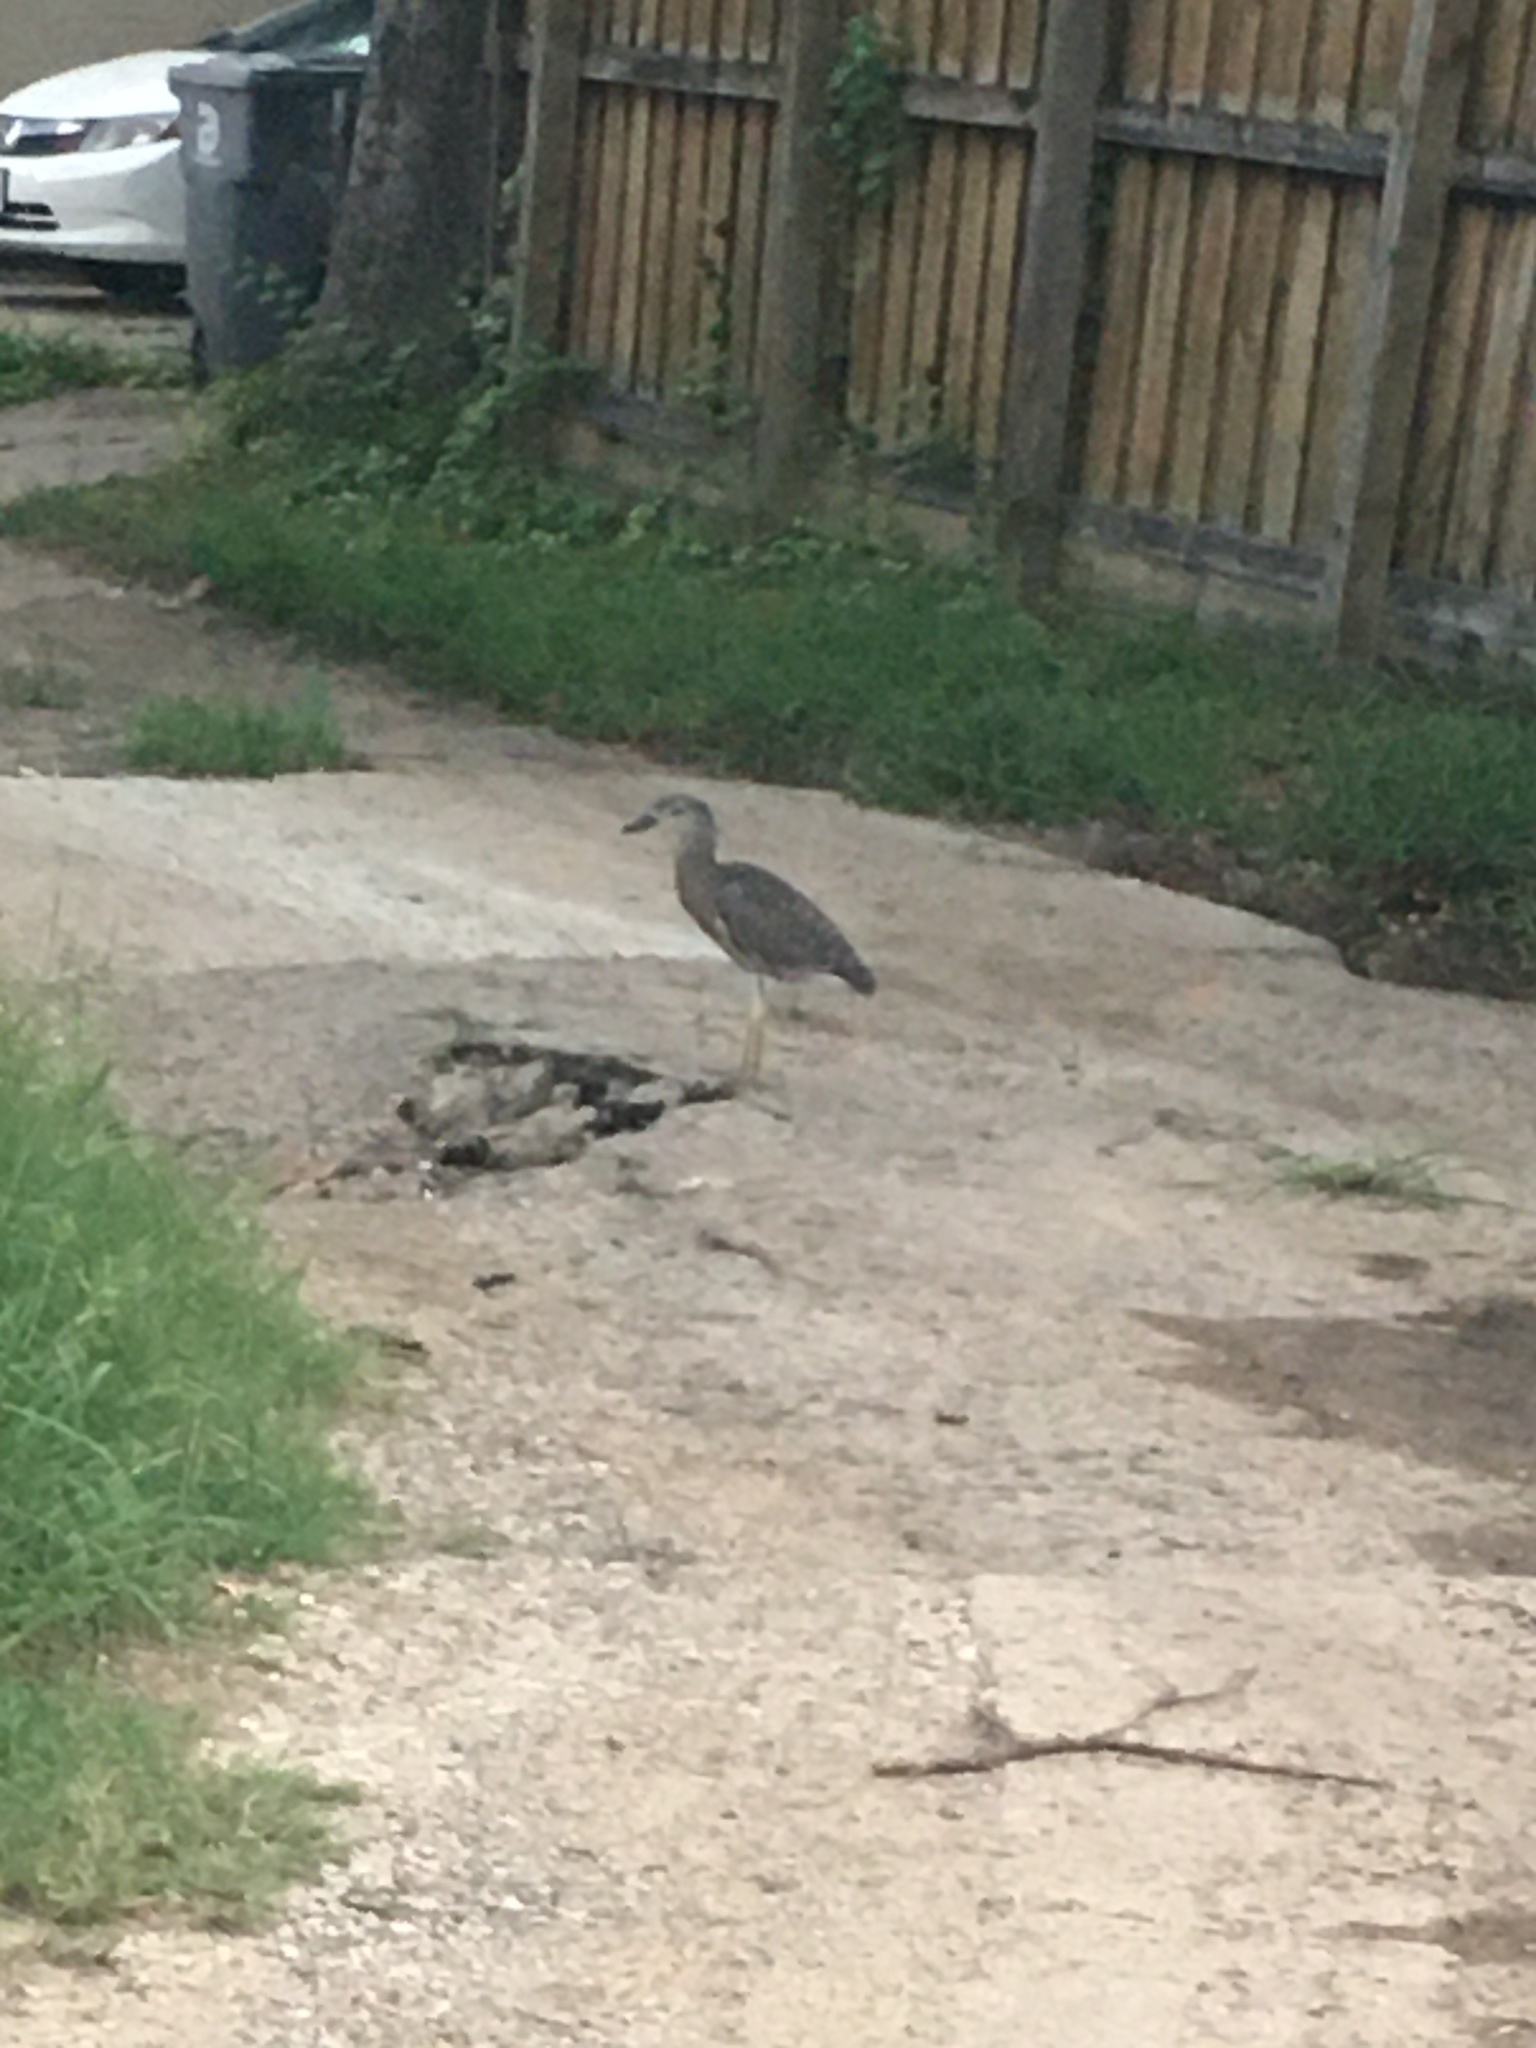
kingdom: Animalia
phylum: Chordata
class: Aves
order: Pelecaniformes
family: Ardeidae
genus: Nyctanassa
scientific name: Nyctanassa violacea
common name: Yellow-crowned night heron
